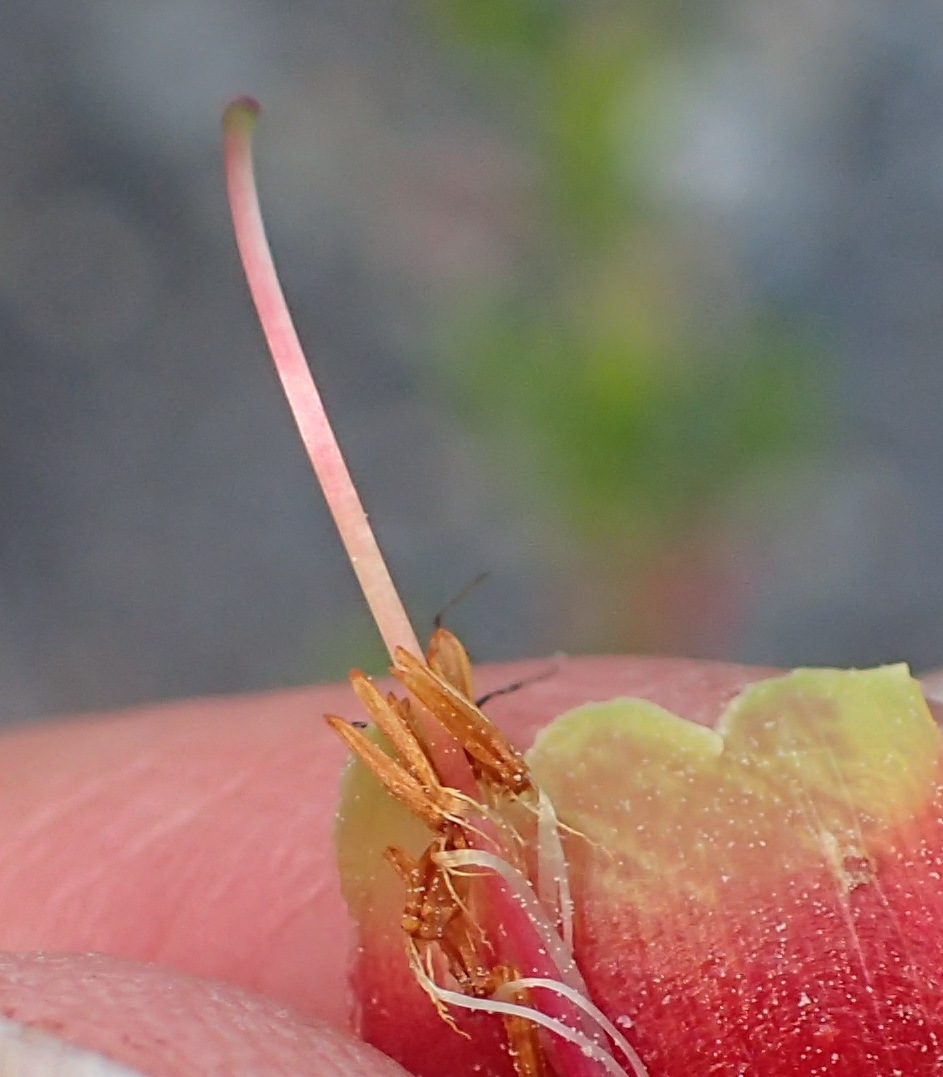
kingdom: Plantae
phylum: Tracheophyta
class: Magnoliopsida
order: Ericales
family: Ericaceae
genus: Erica
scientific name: Erica discolor
